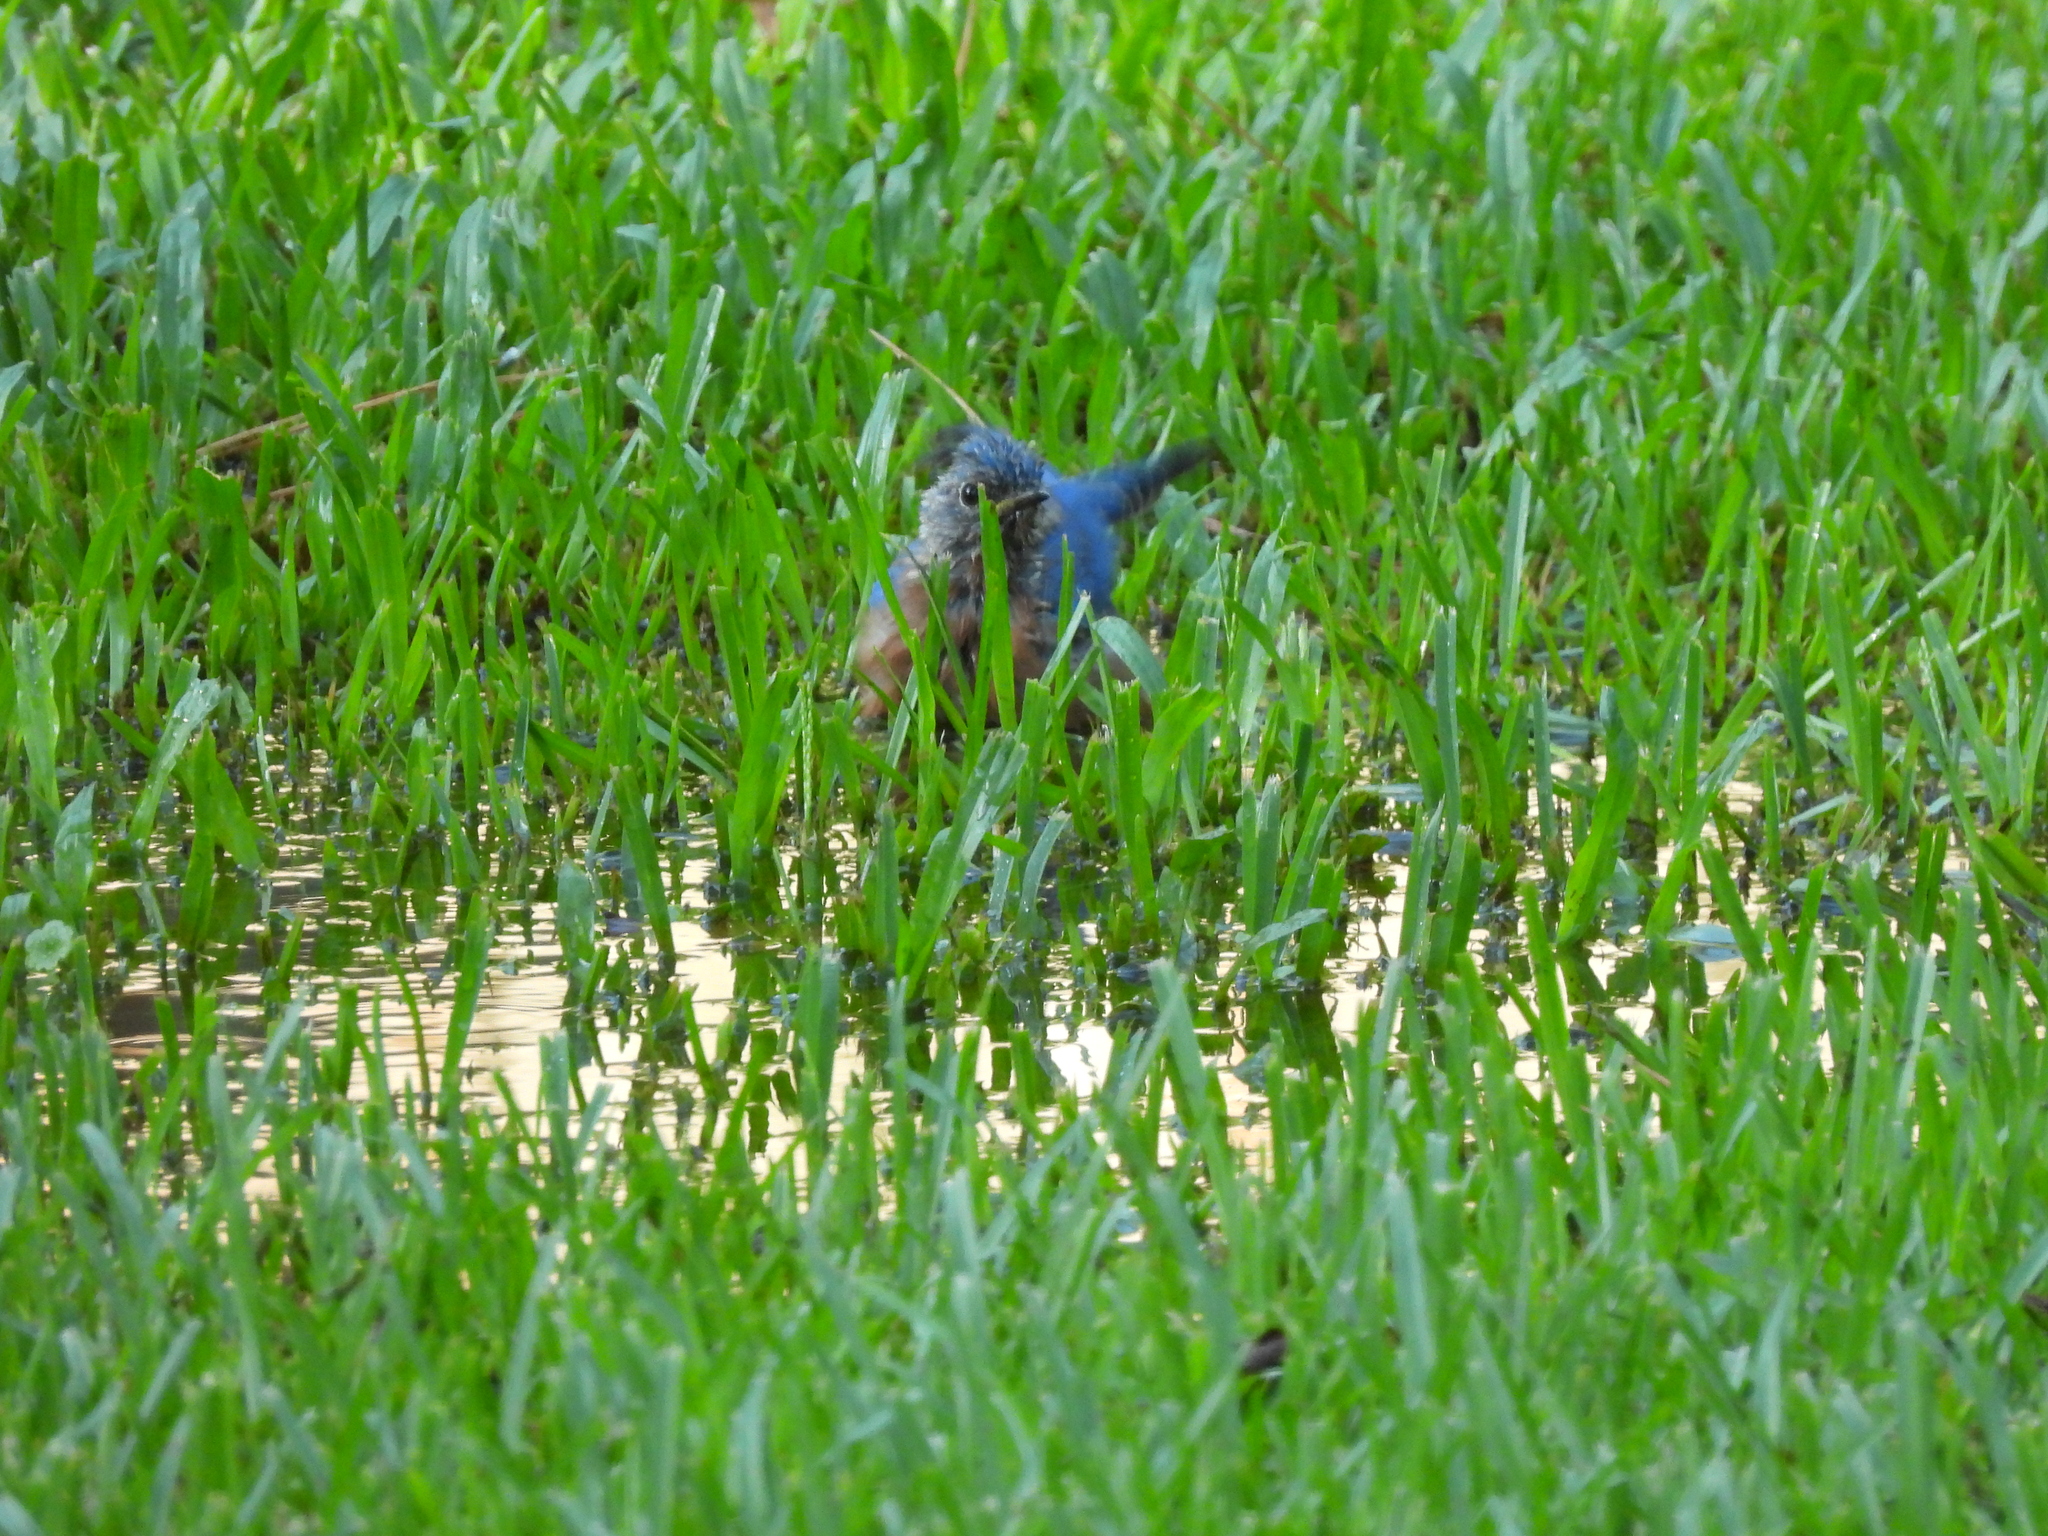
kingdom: Animalia
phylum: Chordata
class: Aves
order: Passeriformes
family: Turdidae
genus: Sialia
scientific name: Sialia sialis
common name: Eastern bluebird
